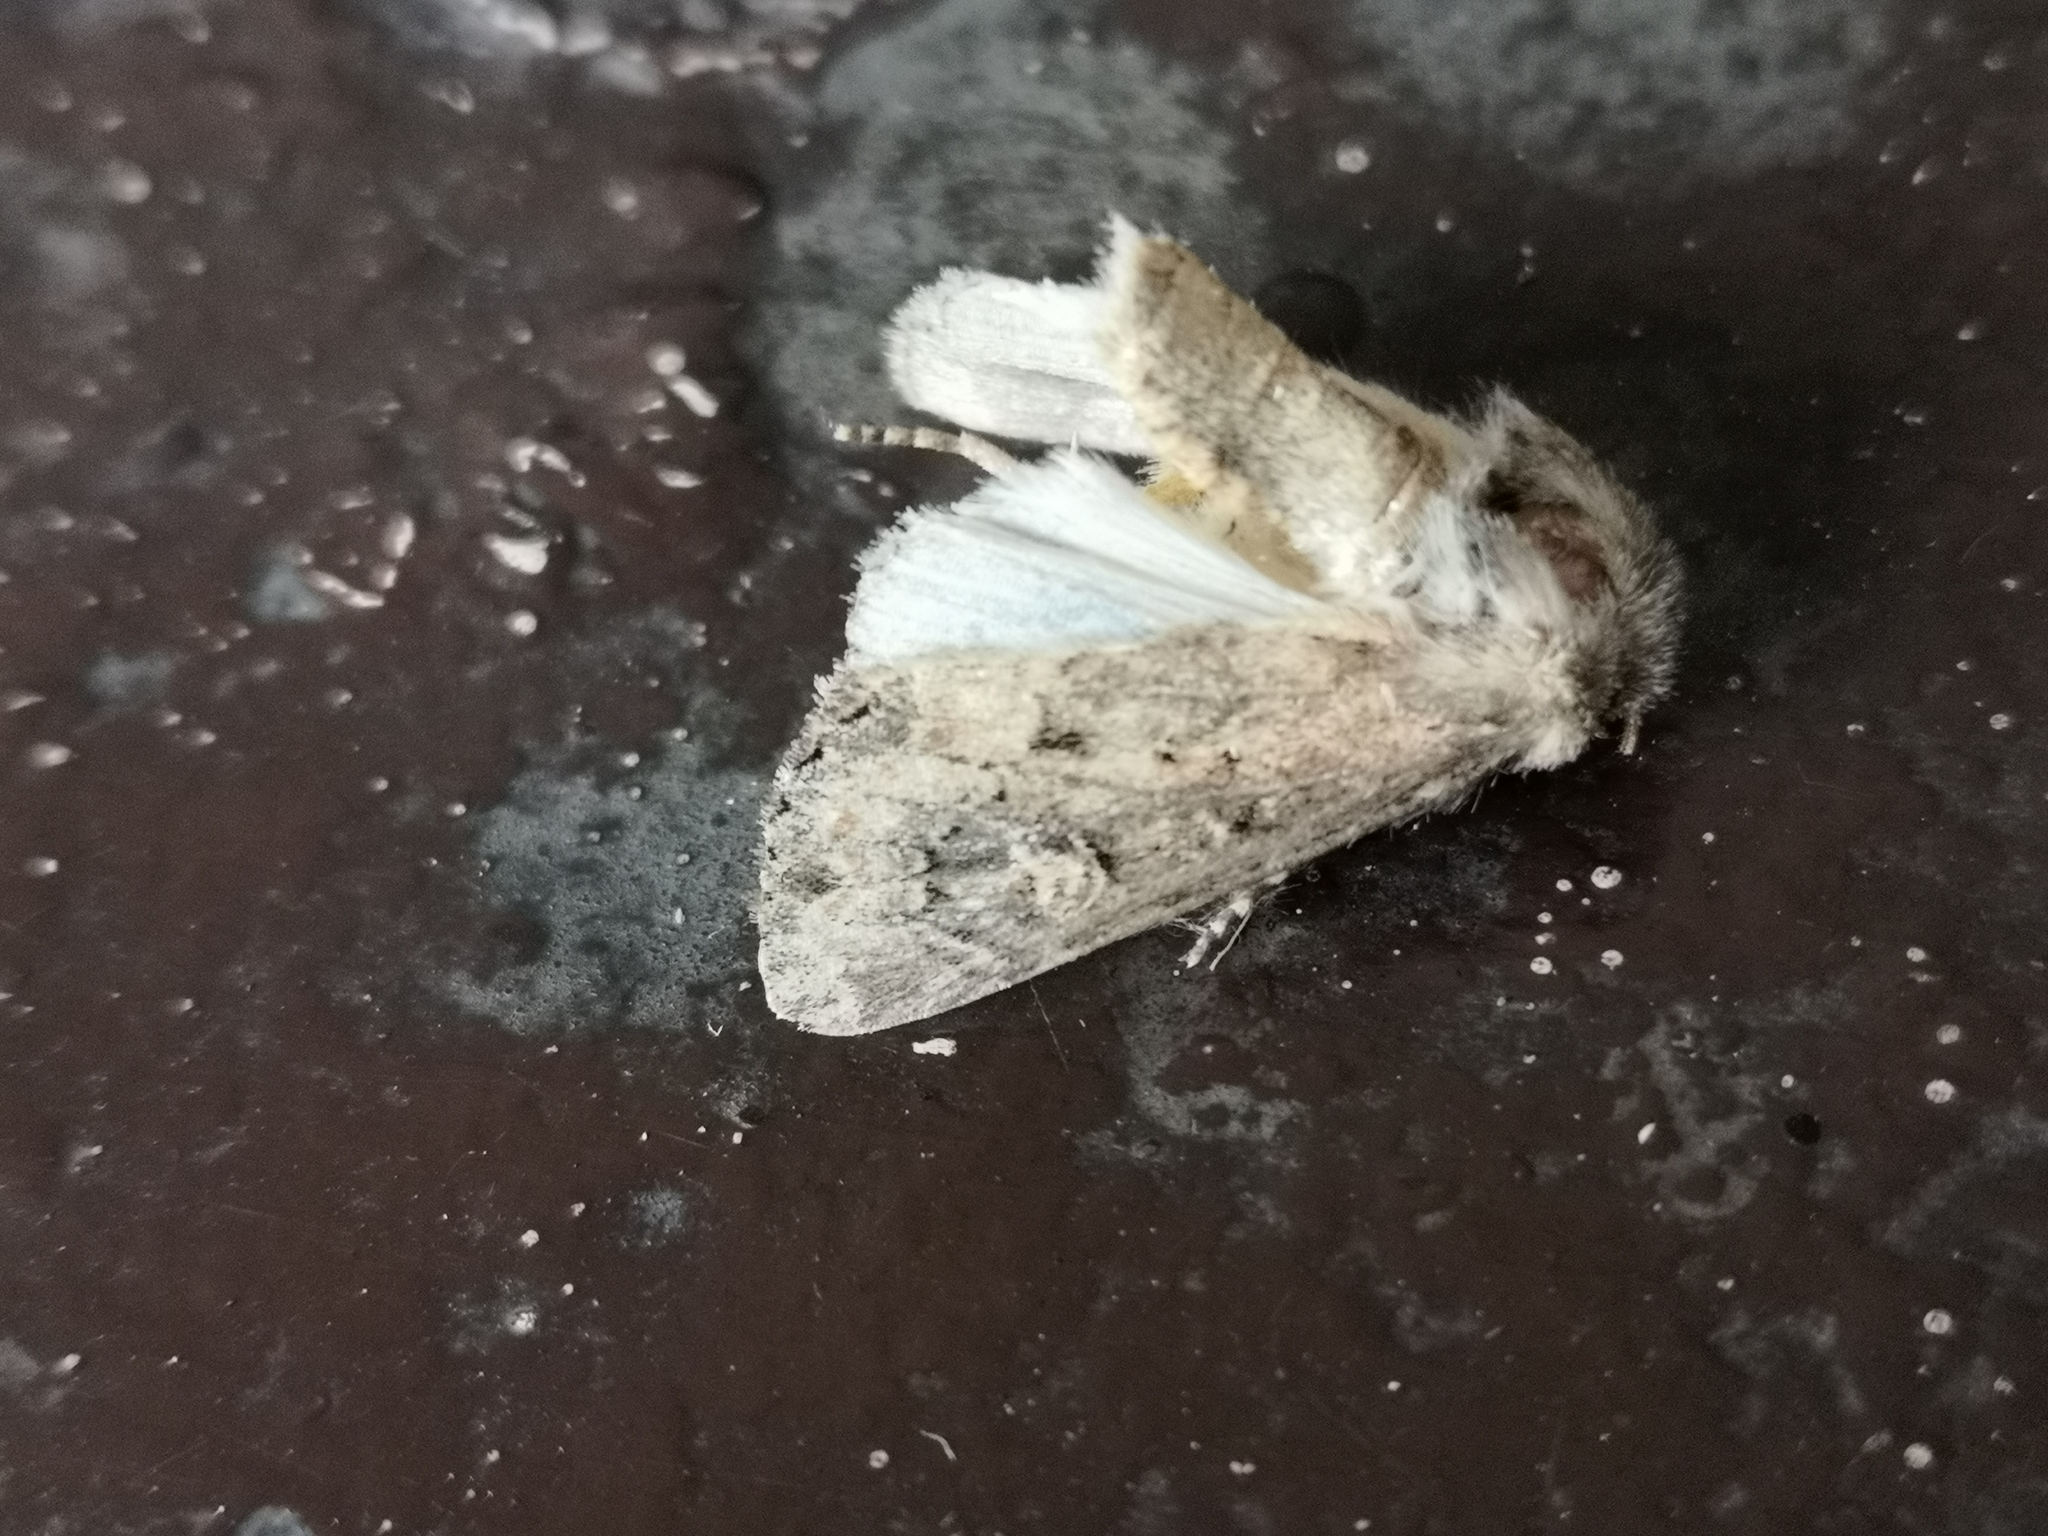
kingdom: Animalia
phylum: Arthropoda
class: Insecta
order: Lepidoptera
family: Noctuidae
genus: Luperina
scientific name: Luperina testacea
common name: Flounced rustic
